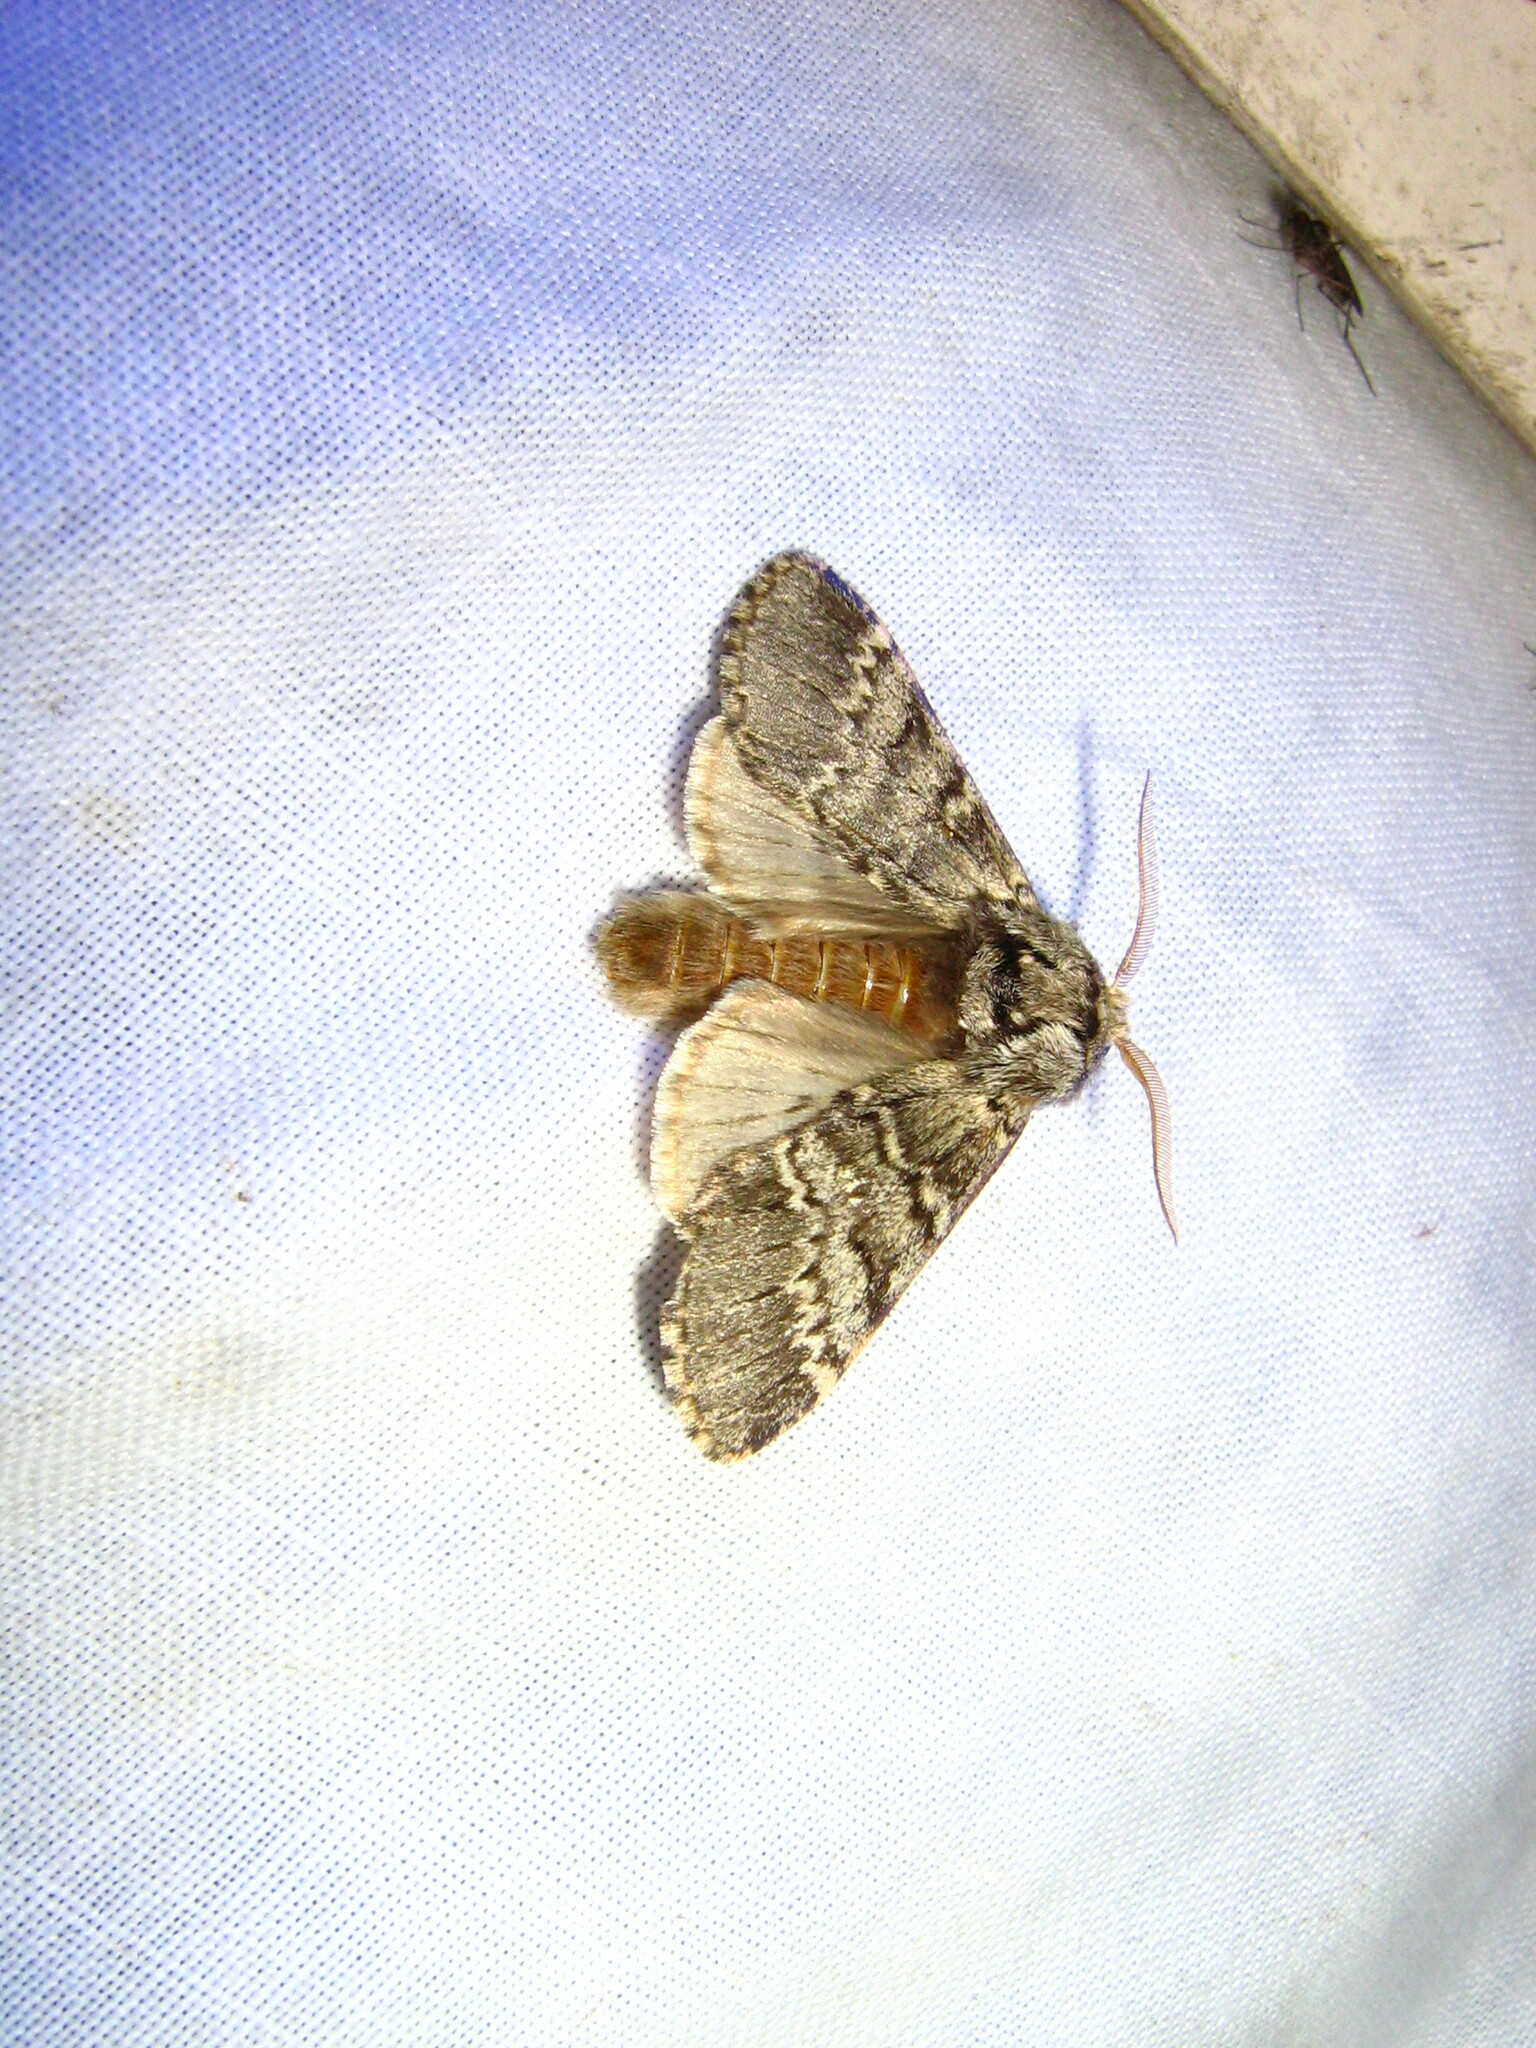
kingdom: Animalia
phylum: Arthropoda
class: Insecta
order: Lepidoptera
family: Notodontidae
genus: Drymonia
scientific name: Drymonia ruficornis
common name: Lunar marbled brown
